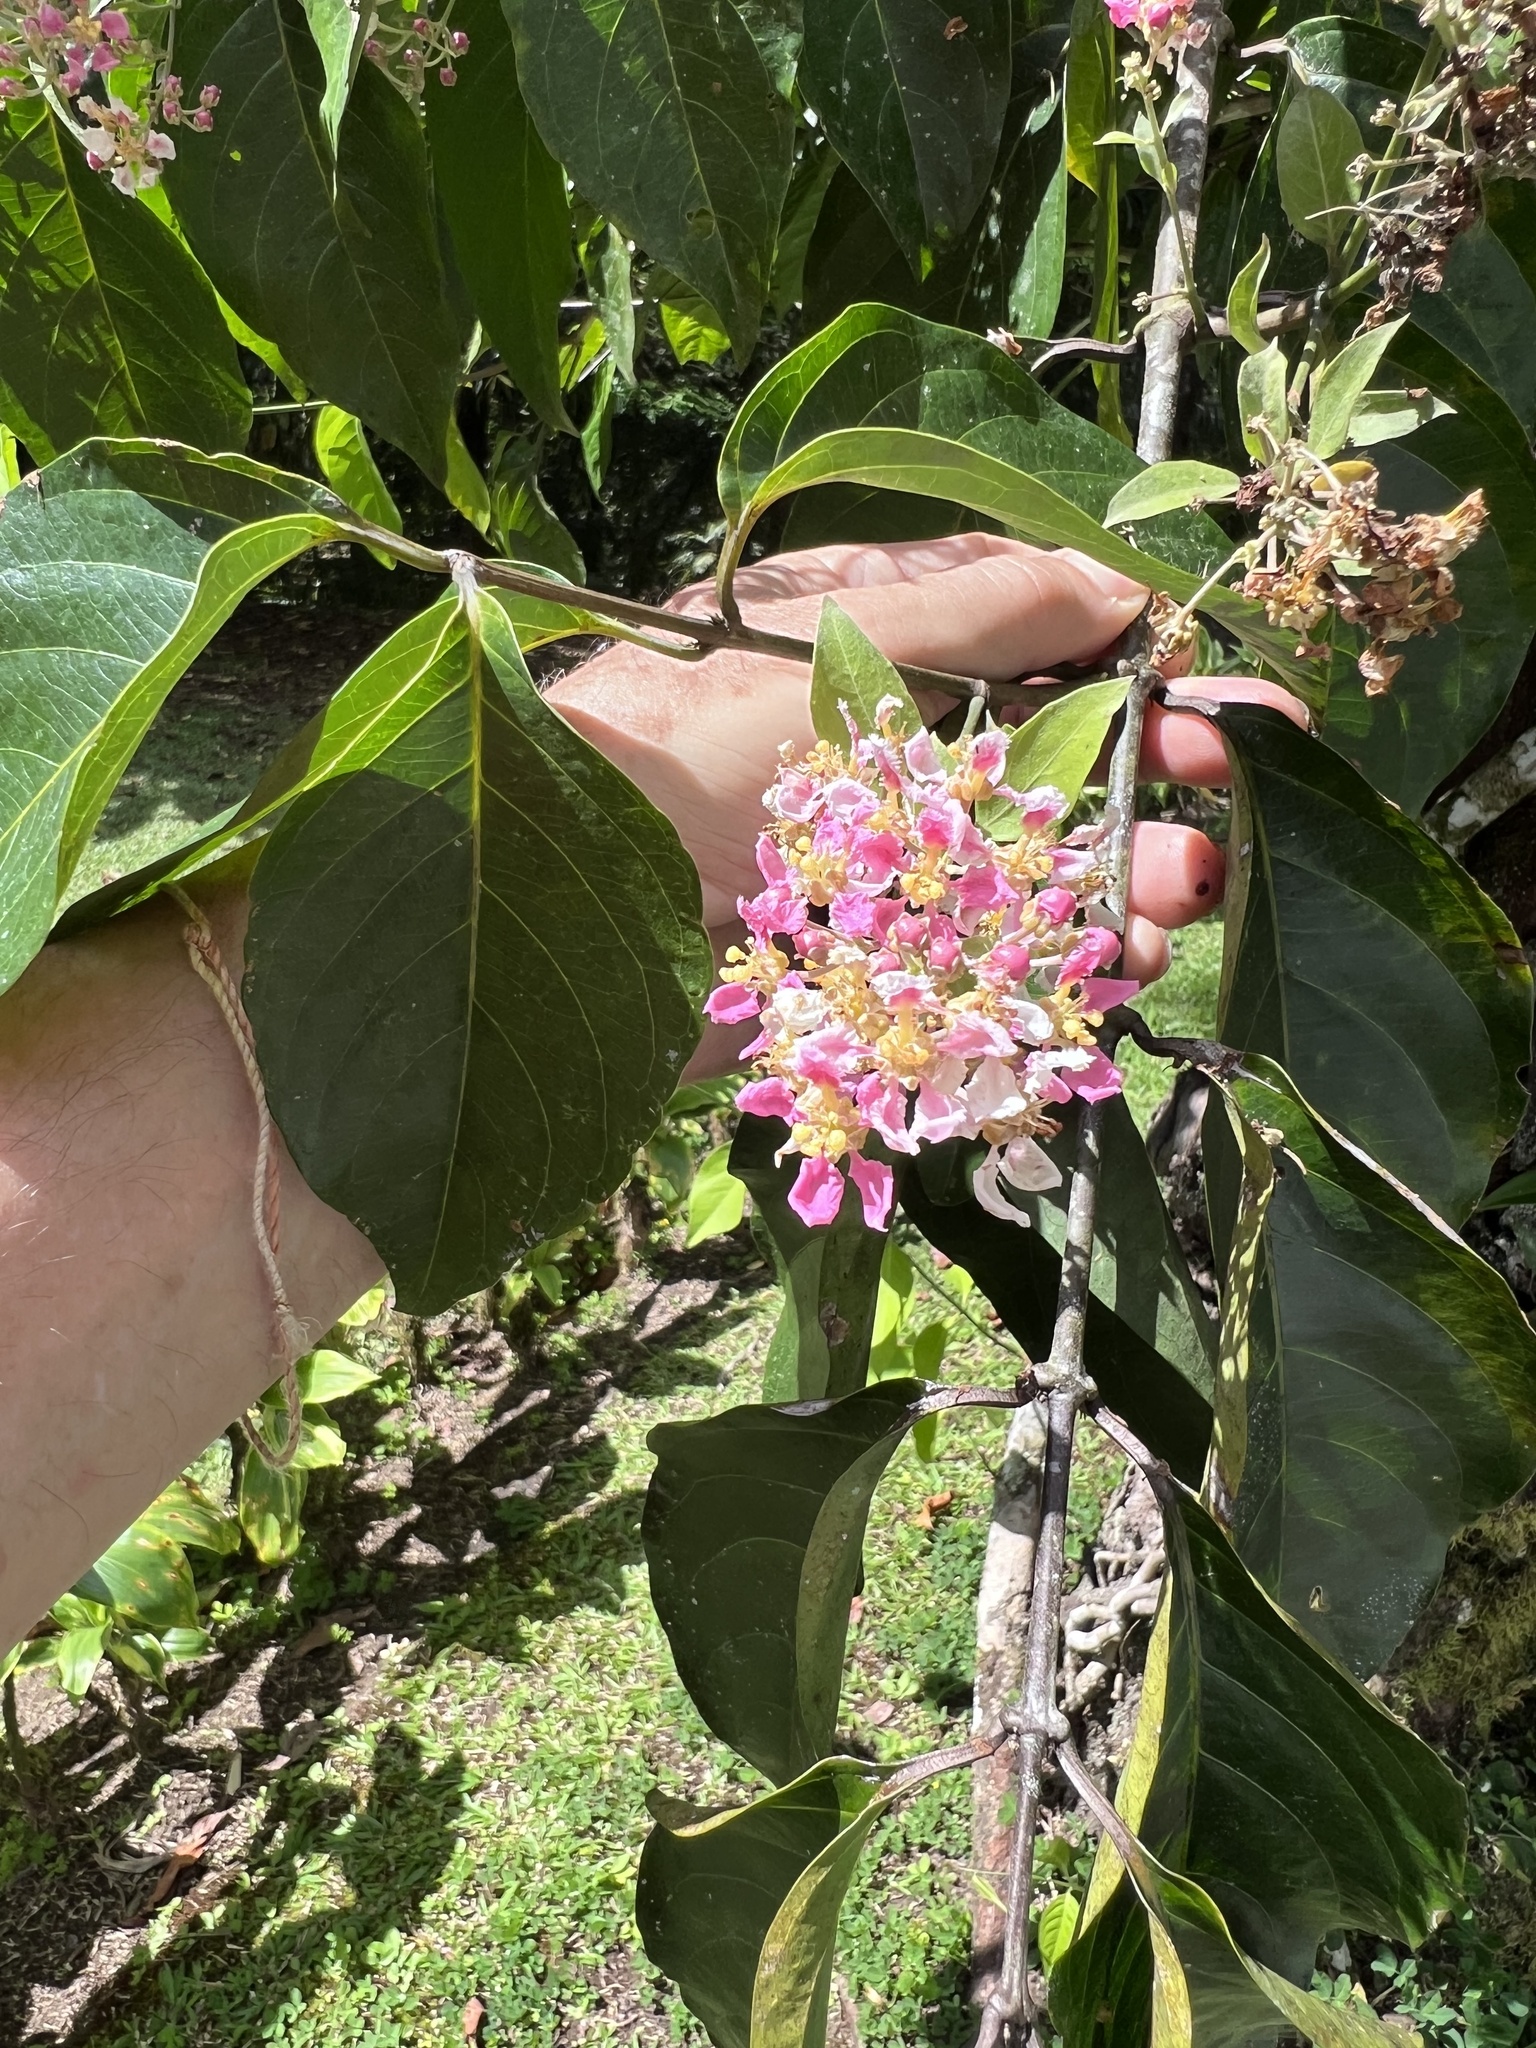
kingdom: Plantae
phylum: Tracheophyta
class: Magnoliopsida
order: Malpighiales
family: Malpighiaceae
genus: Banisteriopsis
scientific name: Banisteriopsis caapi
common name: Soulvine
